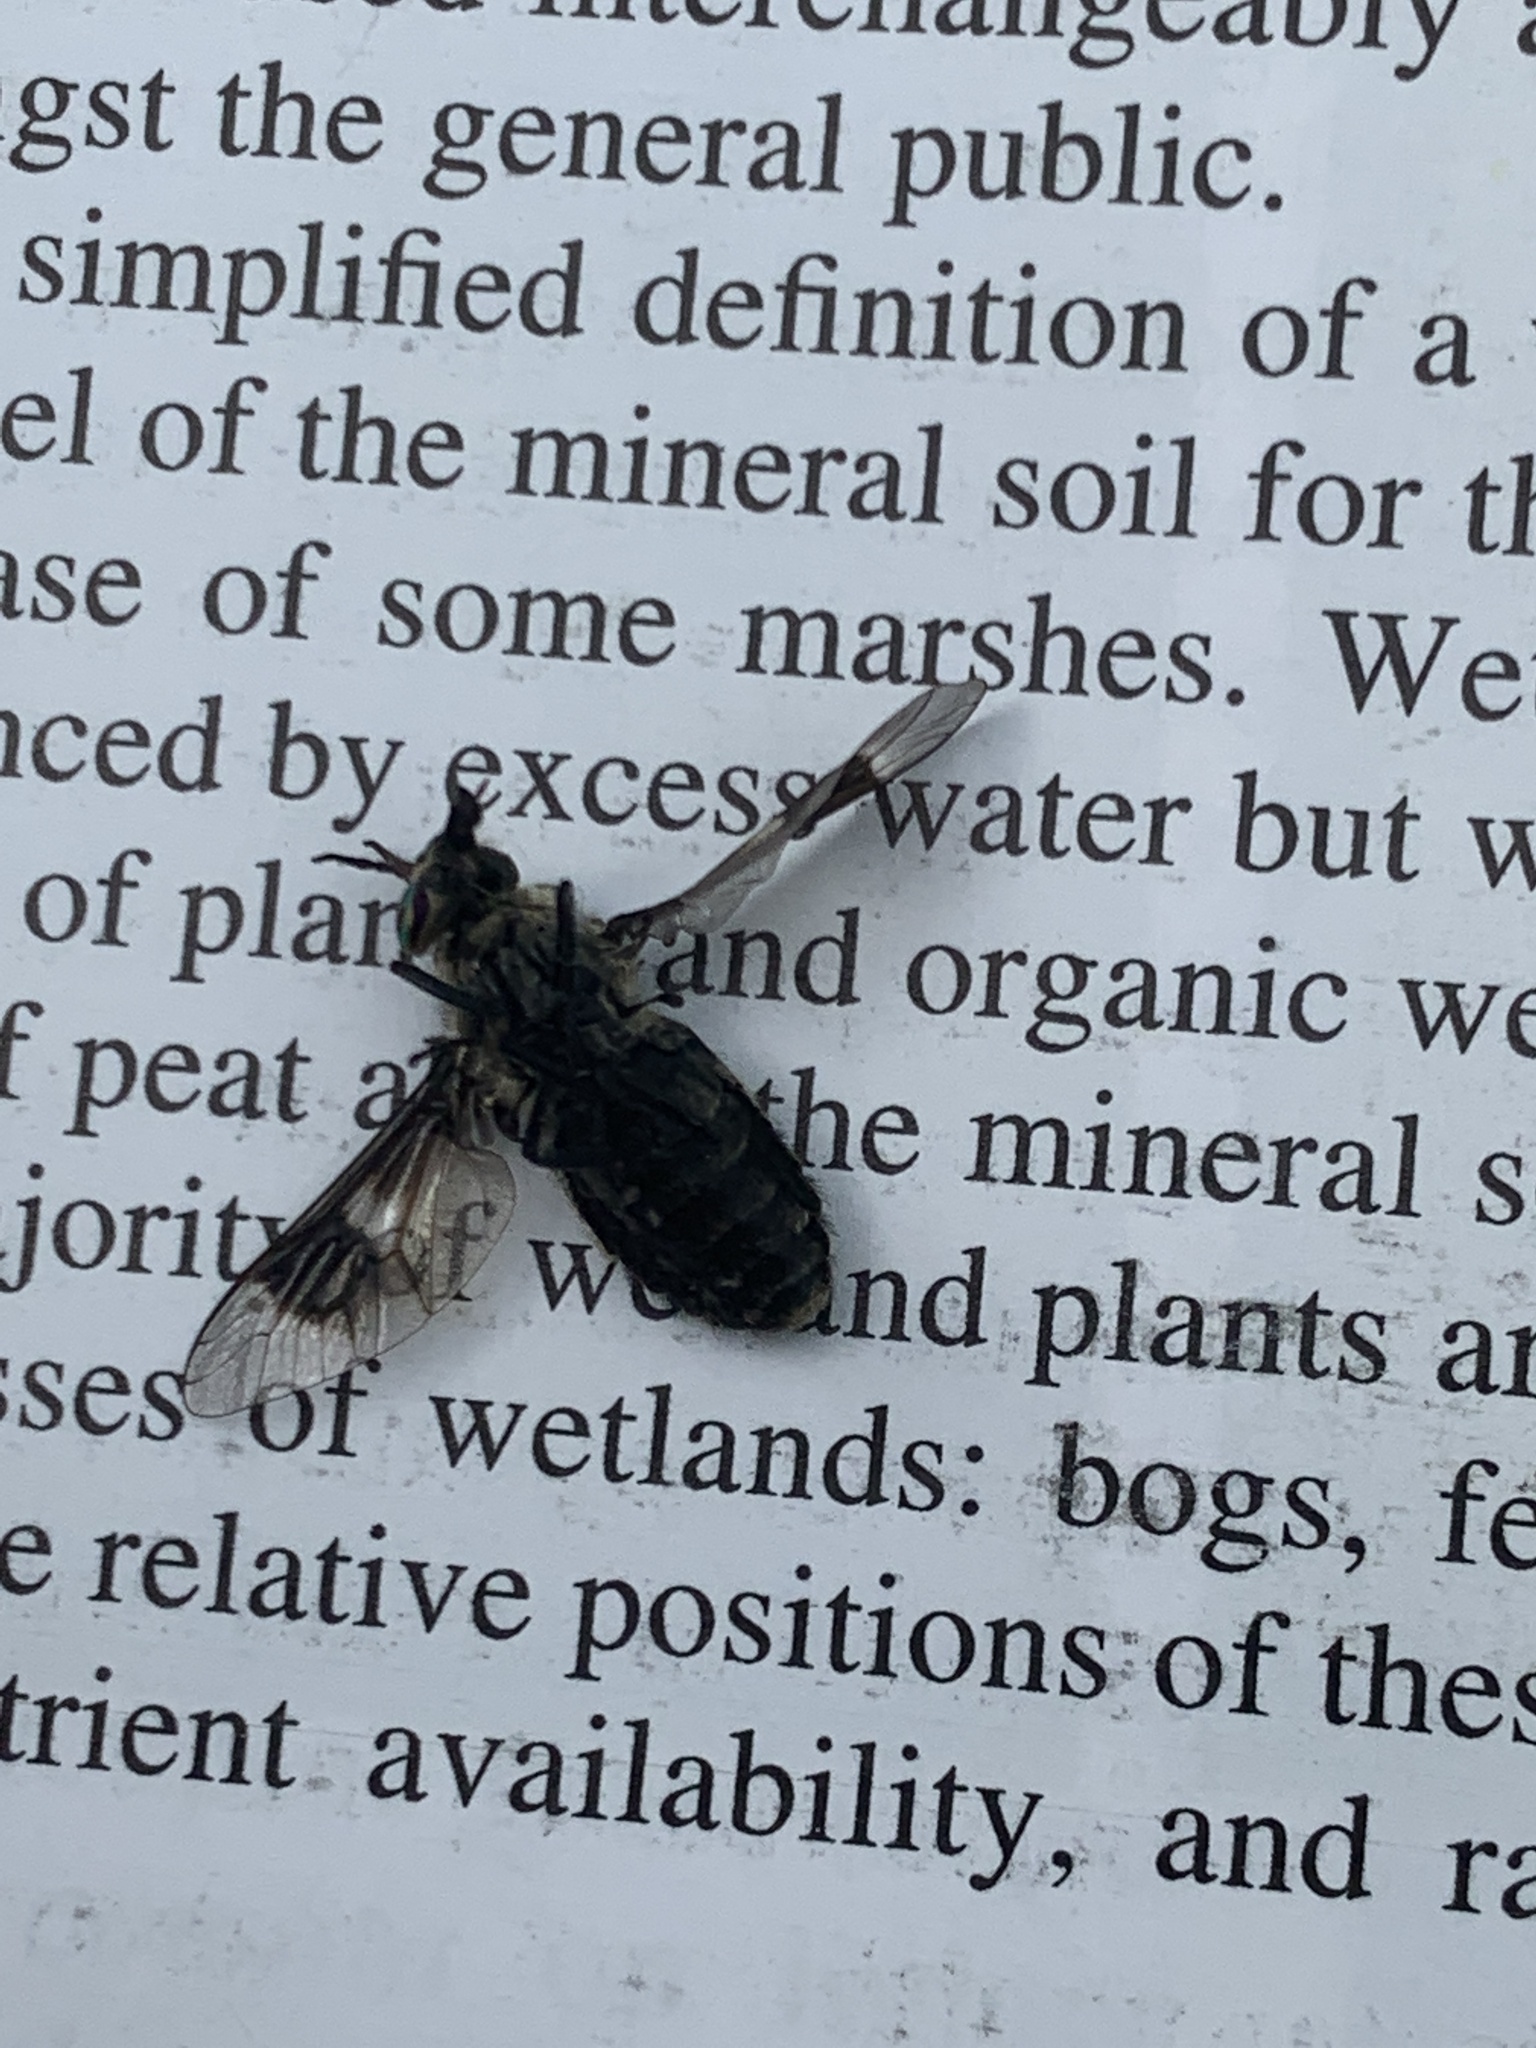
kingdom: Animalia
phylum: Arthropoda
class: Insecta
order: Diptera
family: Tabanidae
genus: Chrysops
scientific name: Chrysops mitis
